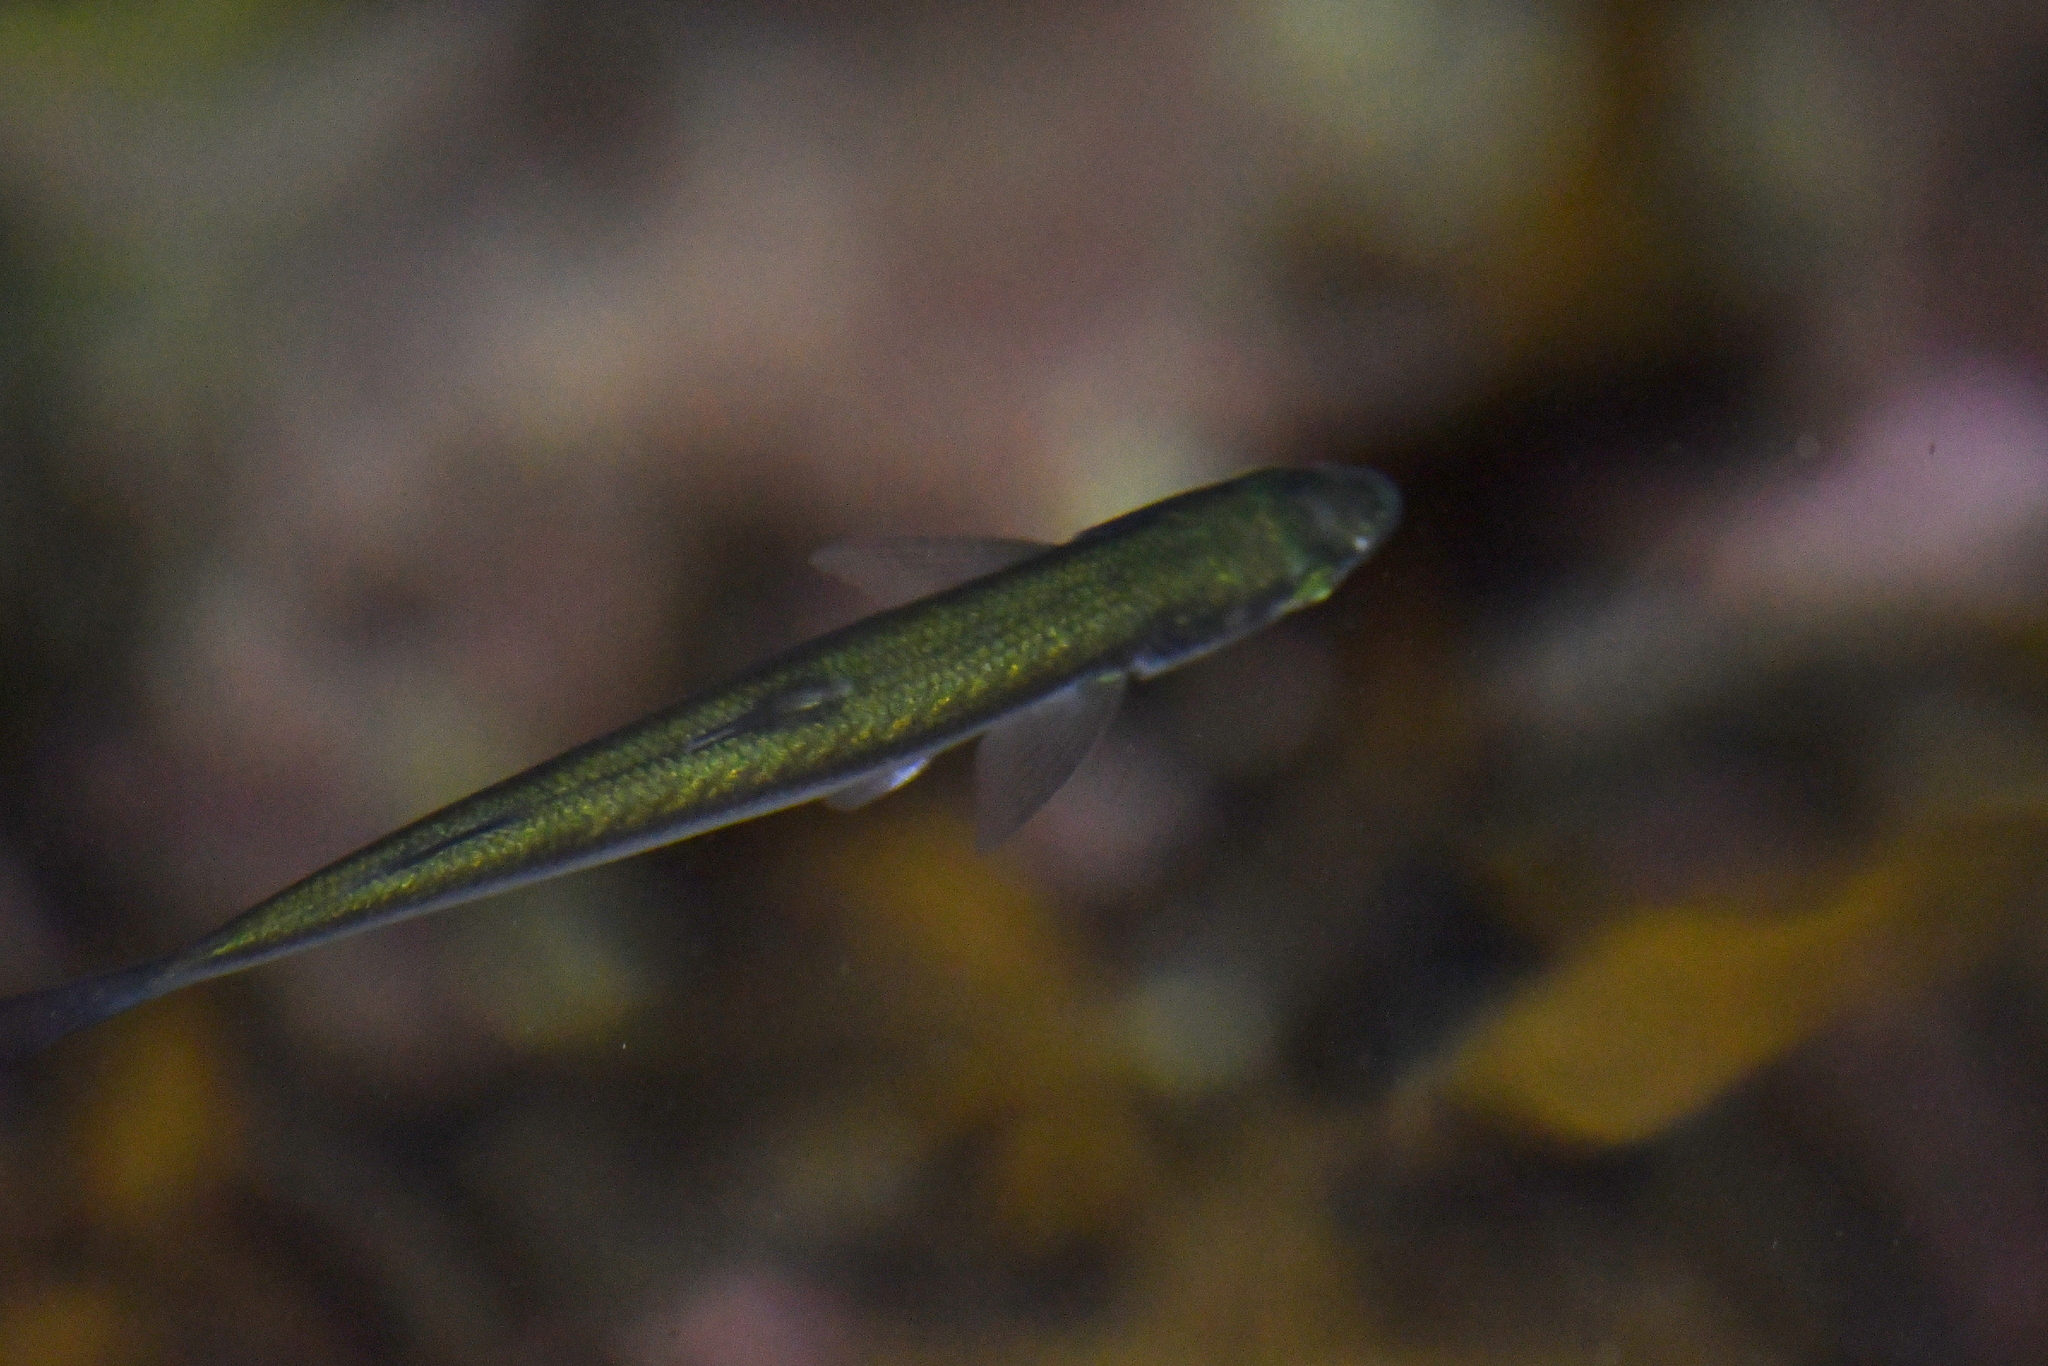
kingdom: Animalia
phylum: Chordata
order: Mugiliformes
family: Mugilidae
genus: Aldrichetta
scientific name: Aldrichetta forsteri
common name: Yellow-eye mullet
